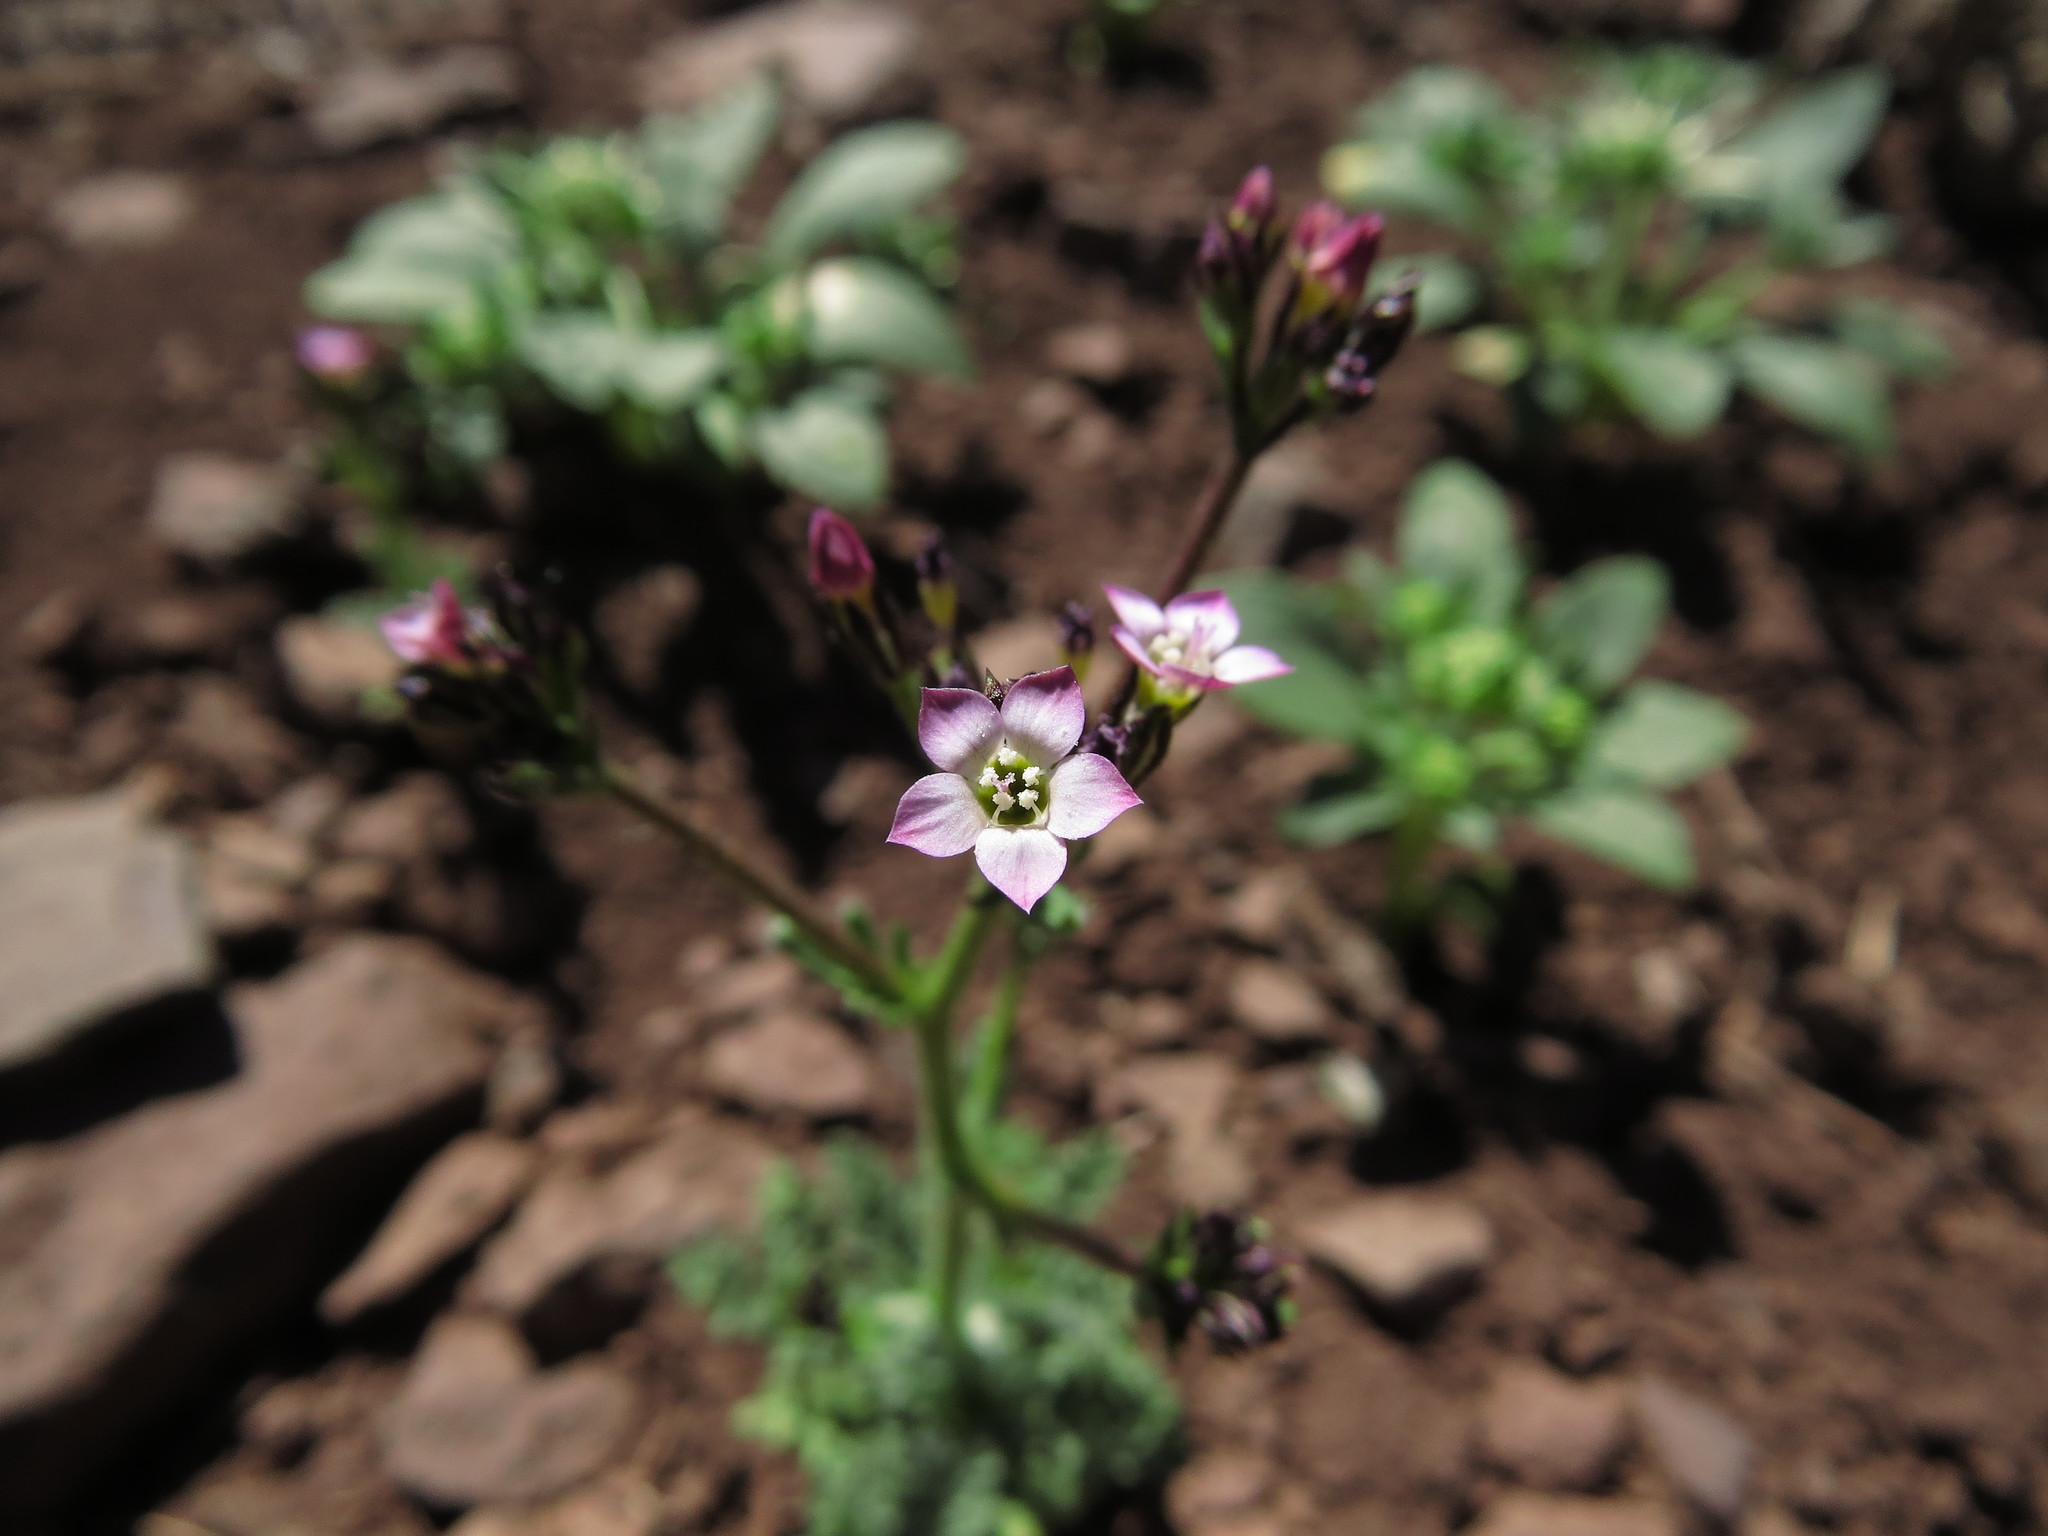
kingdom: Plantae
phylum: Tracheophyta
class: Magnoliopsida
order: Ericales
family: Polemoniaceae
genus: Gilia
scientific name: Gilia crassifolia
